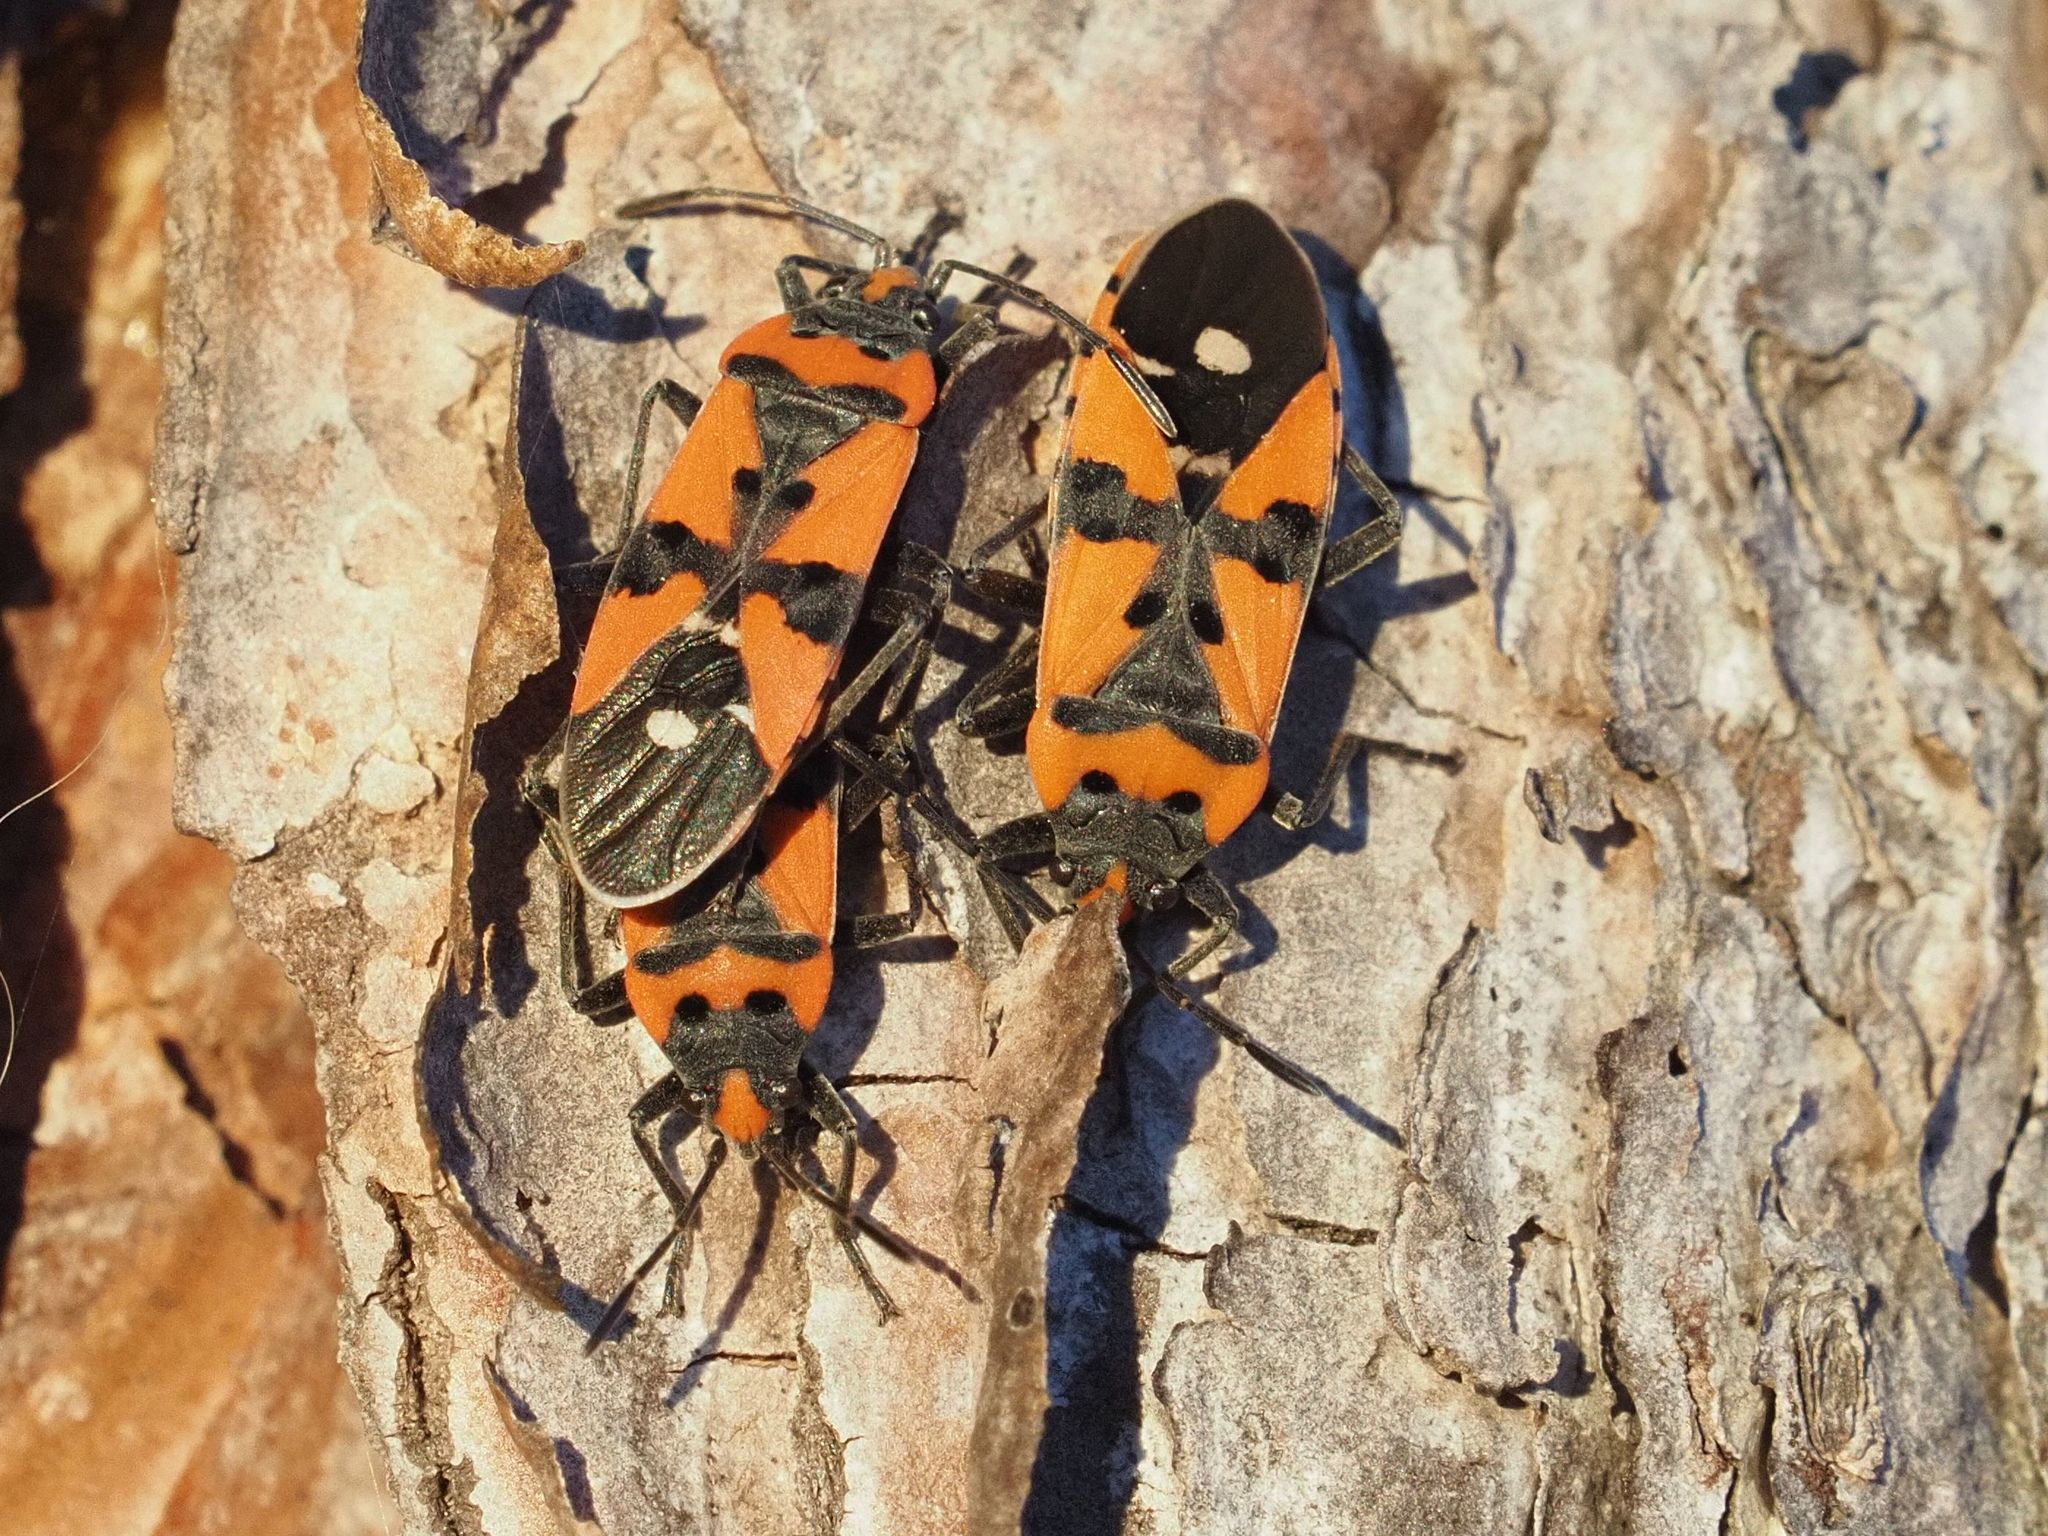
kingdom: Animalia
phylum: Arthropoda
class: Insecta
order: Hemiptera
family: Lygaeidae
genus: Lygaeus
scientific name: Lygaeus equestris
